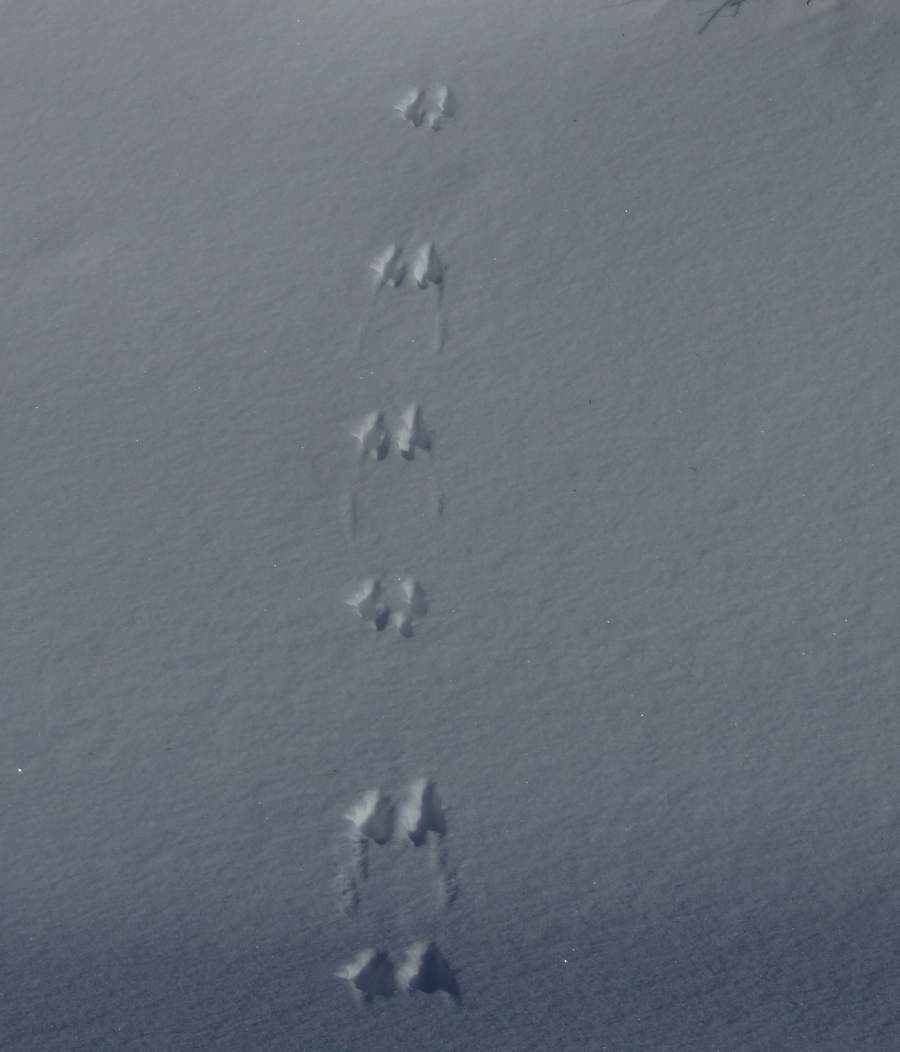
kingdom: Animalia
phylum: Chordata
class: Mammalia
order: Rodentia
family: Sciuridae
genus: Tamiasciurus
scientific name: Tamiasciurus hudsonicus
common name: Red squirrel
